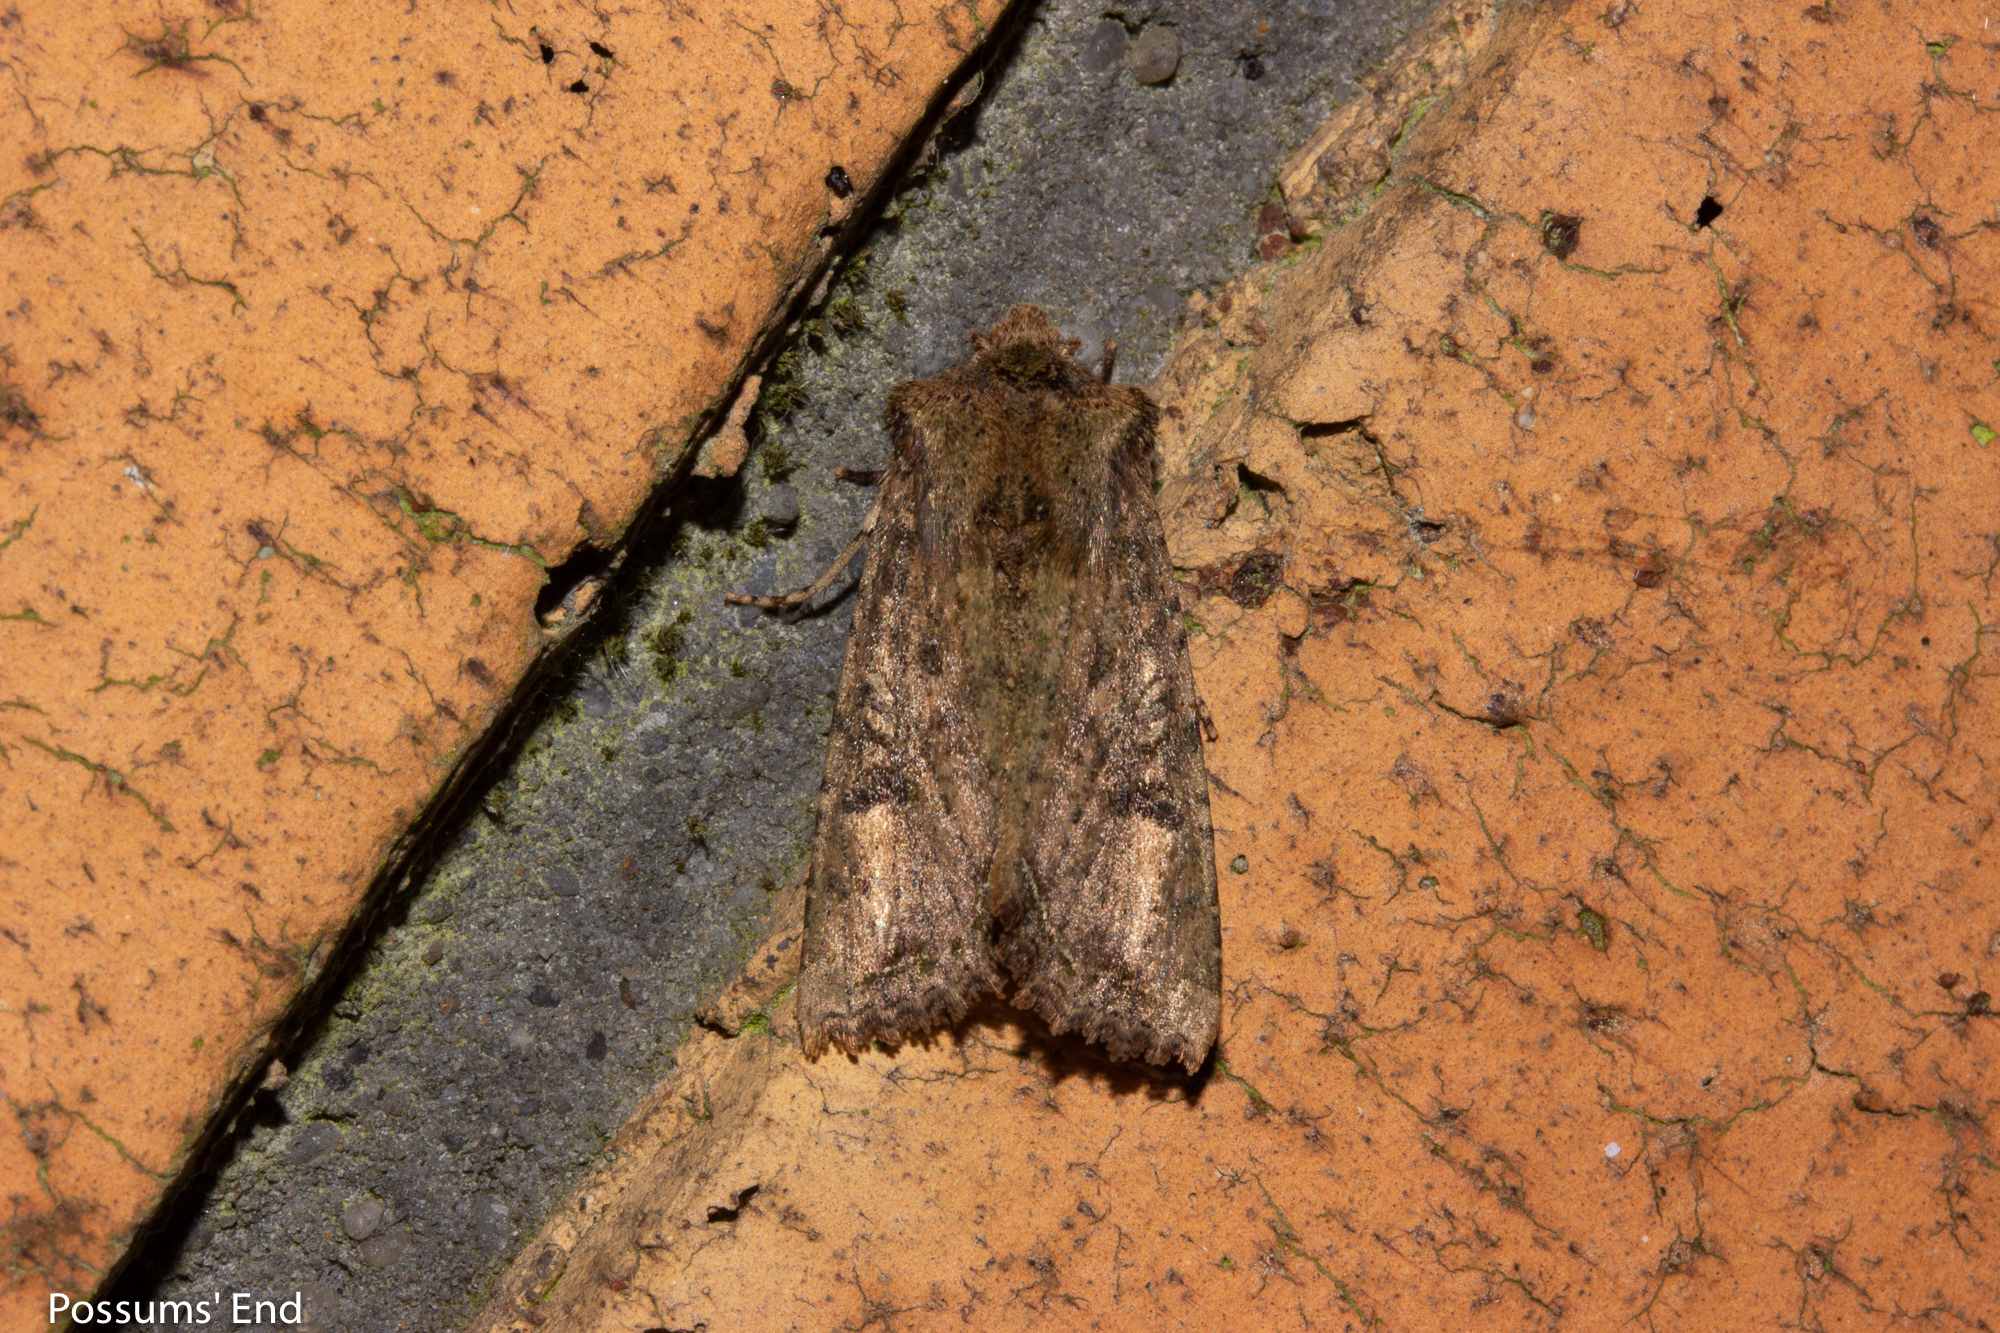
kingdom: Animalia
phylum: Arthropoda
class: Insecta
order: Lepidoptera
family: Noctuidae
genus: Meterana
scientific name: Meterana inchoata
